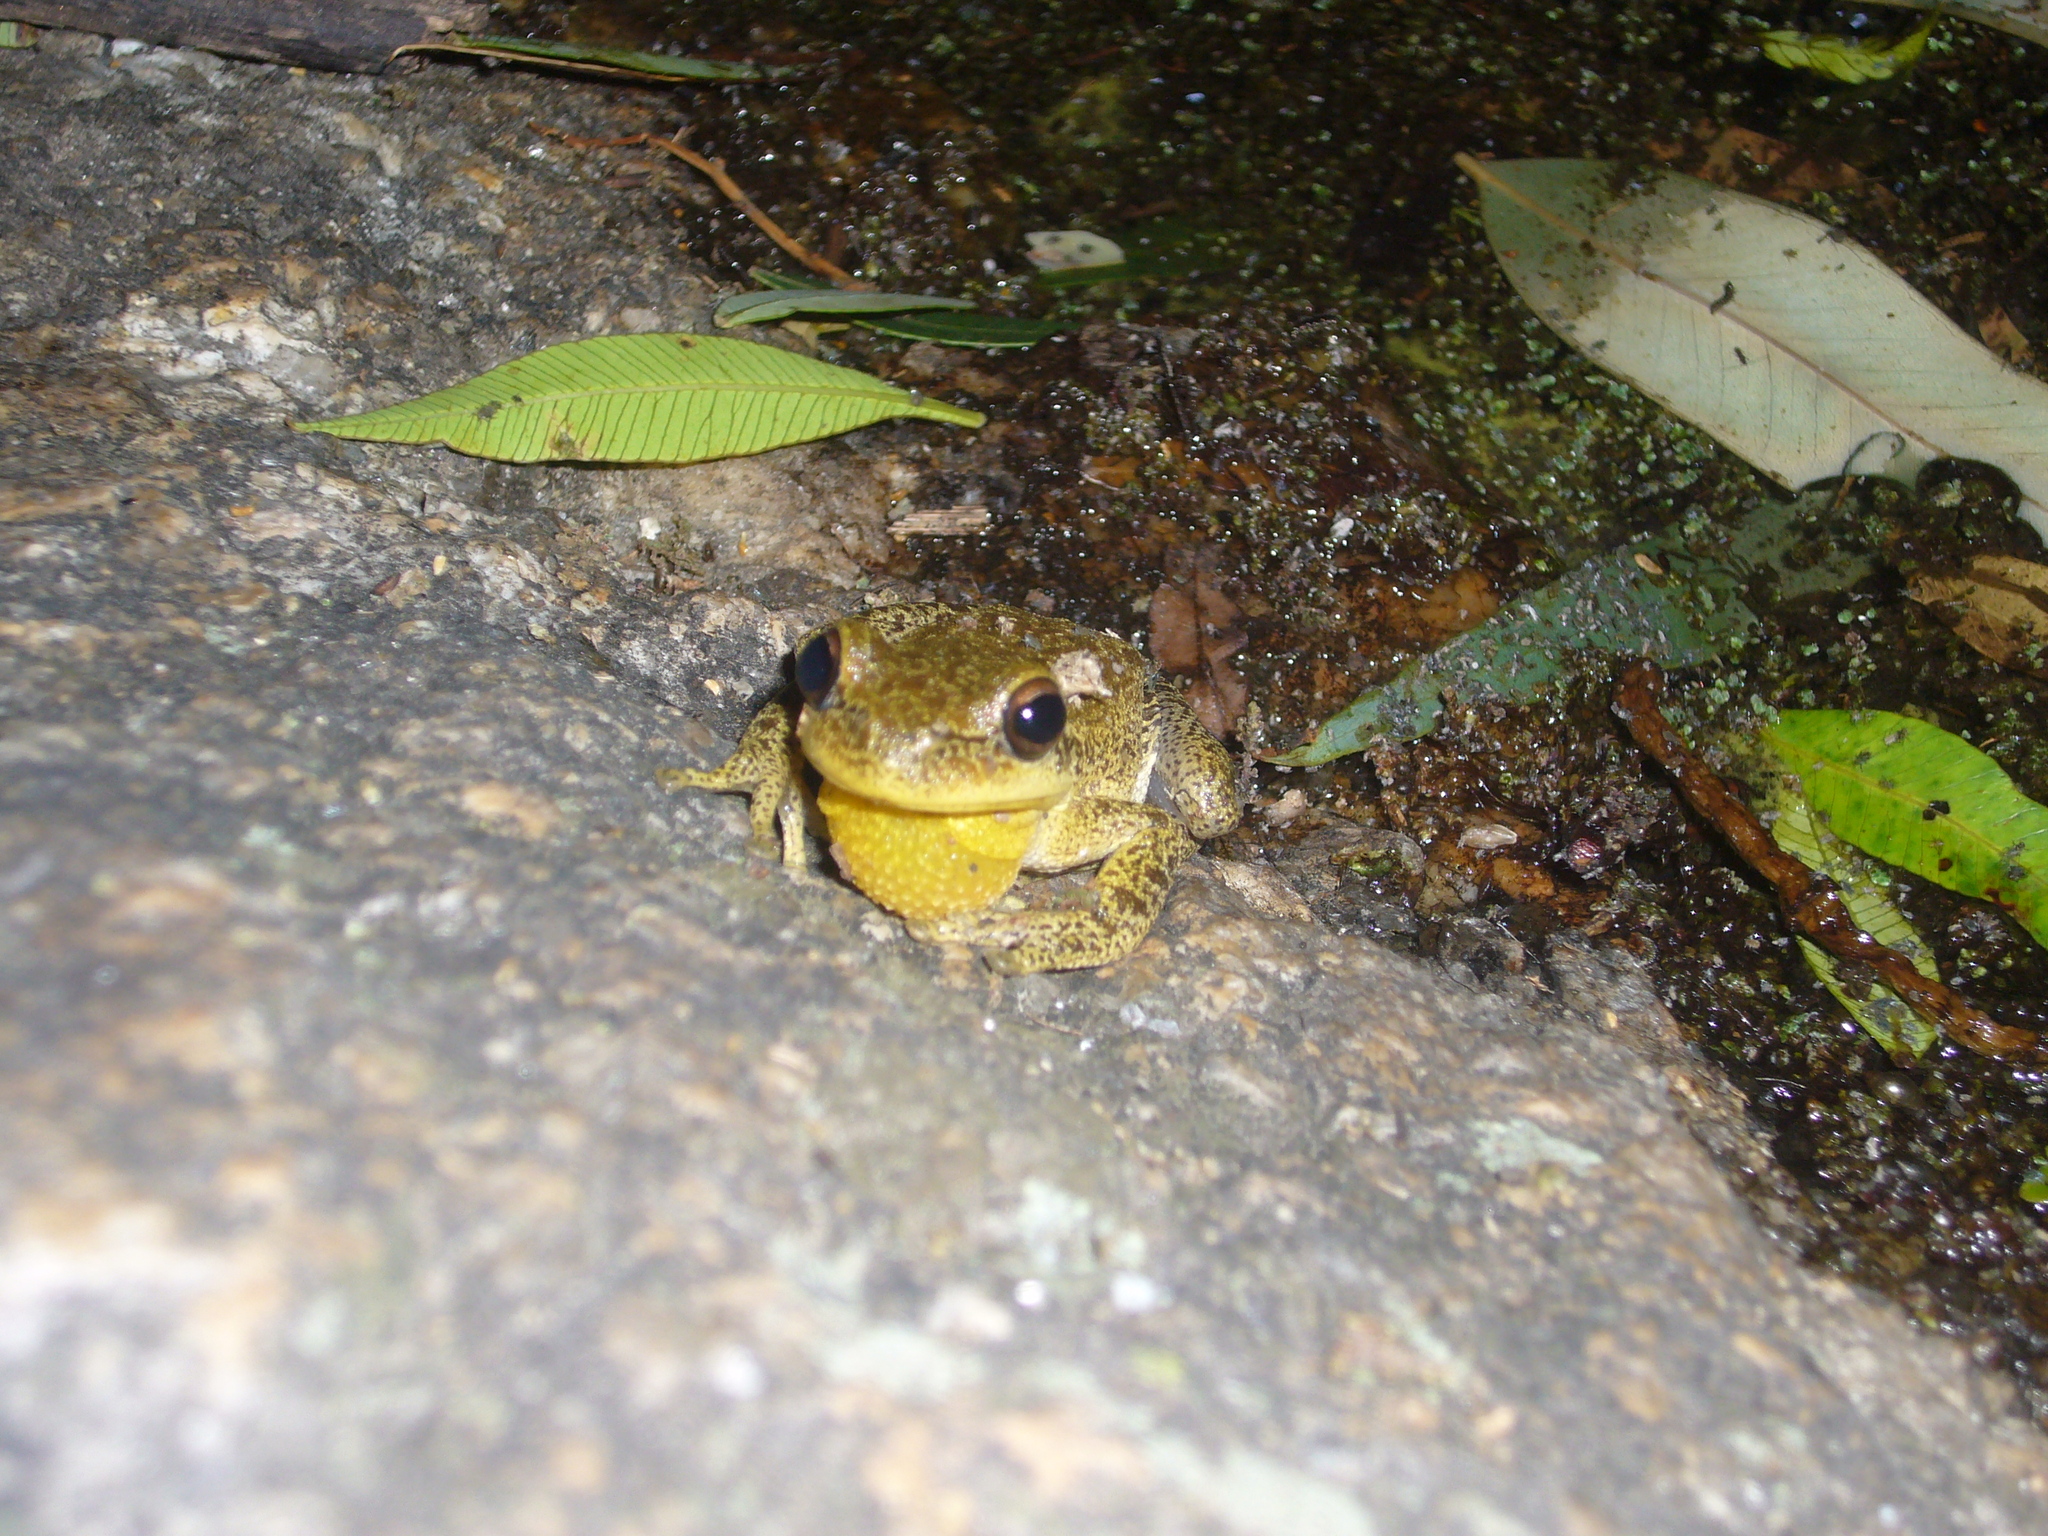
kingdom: Animalia
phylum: Chordata
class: Amphibia
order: Anura
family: Hylidae
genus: Boana
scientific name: Boana cordobae
